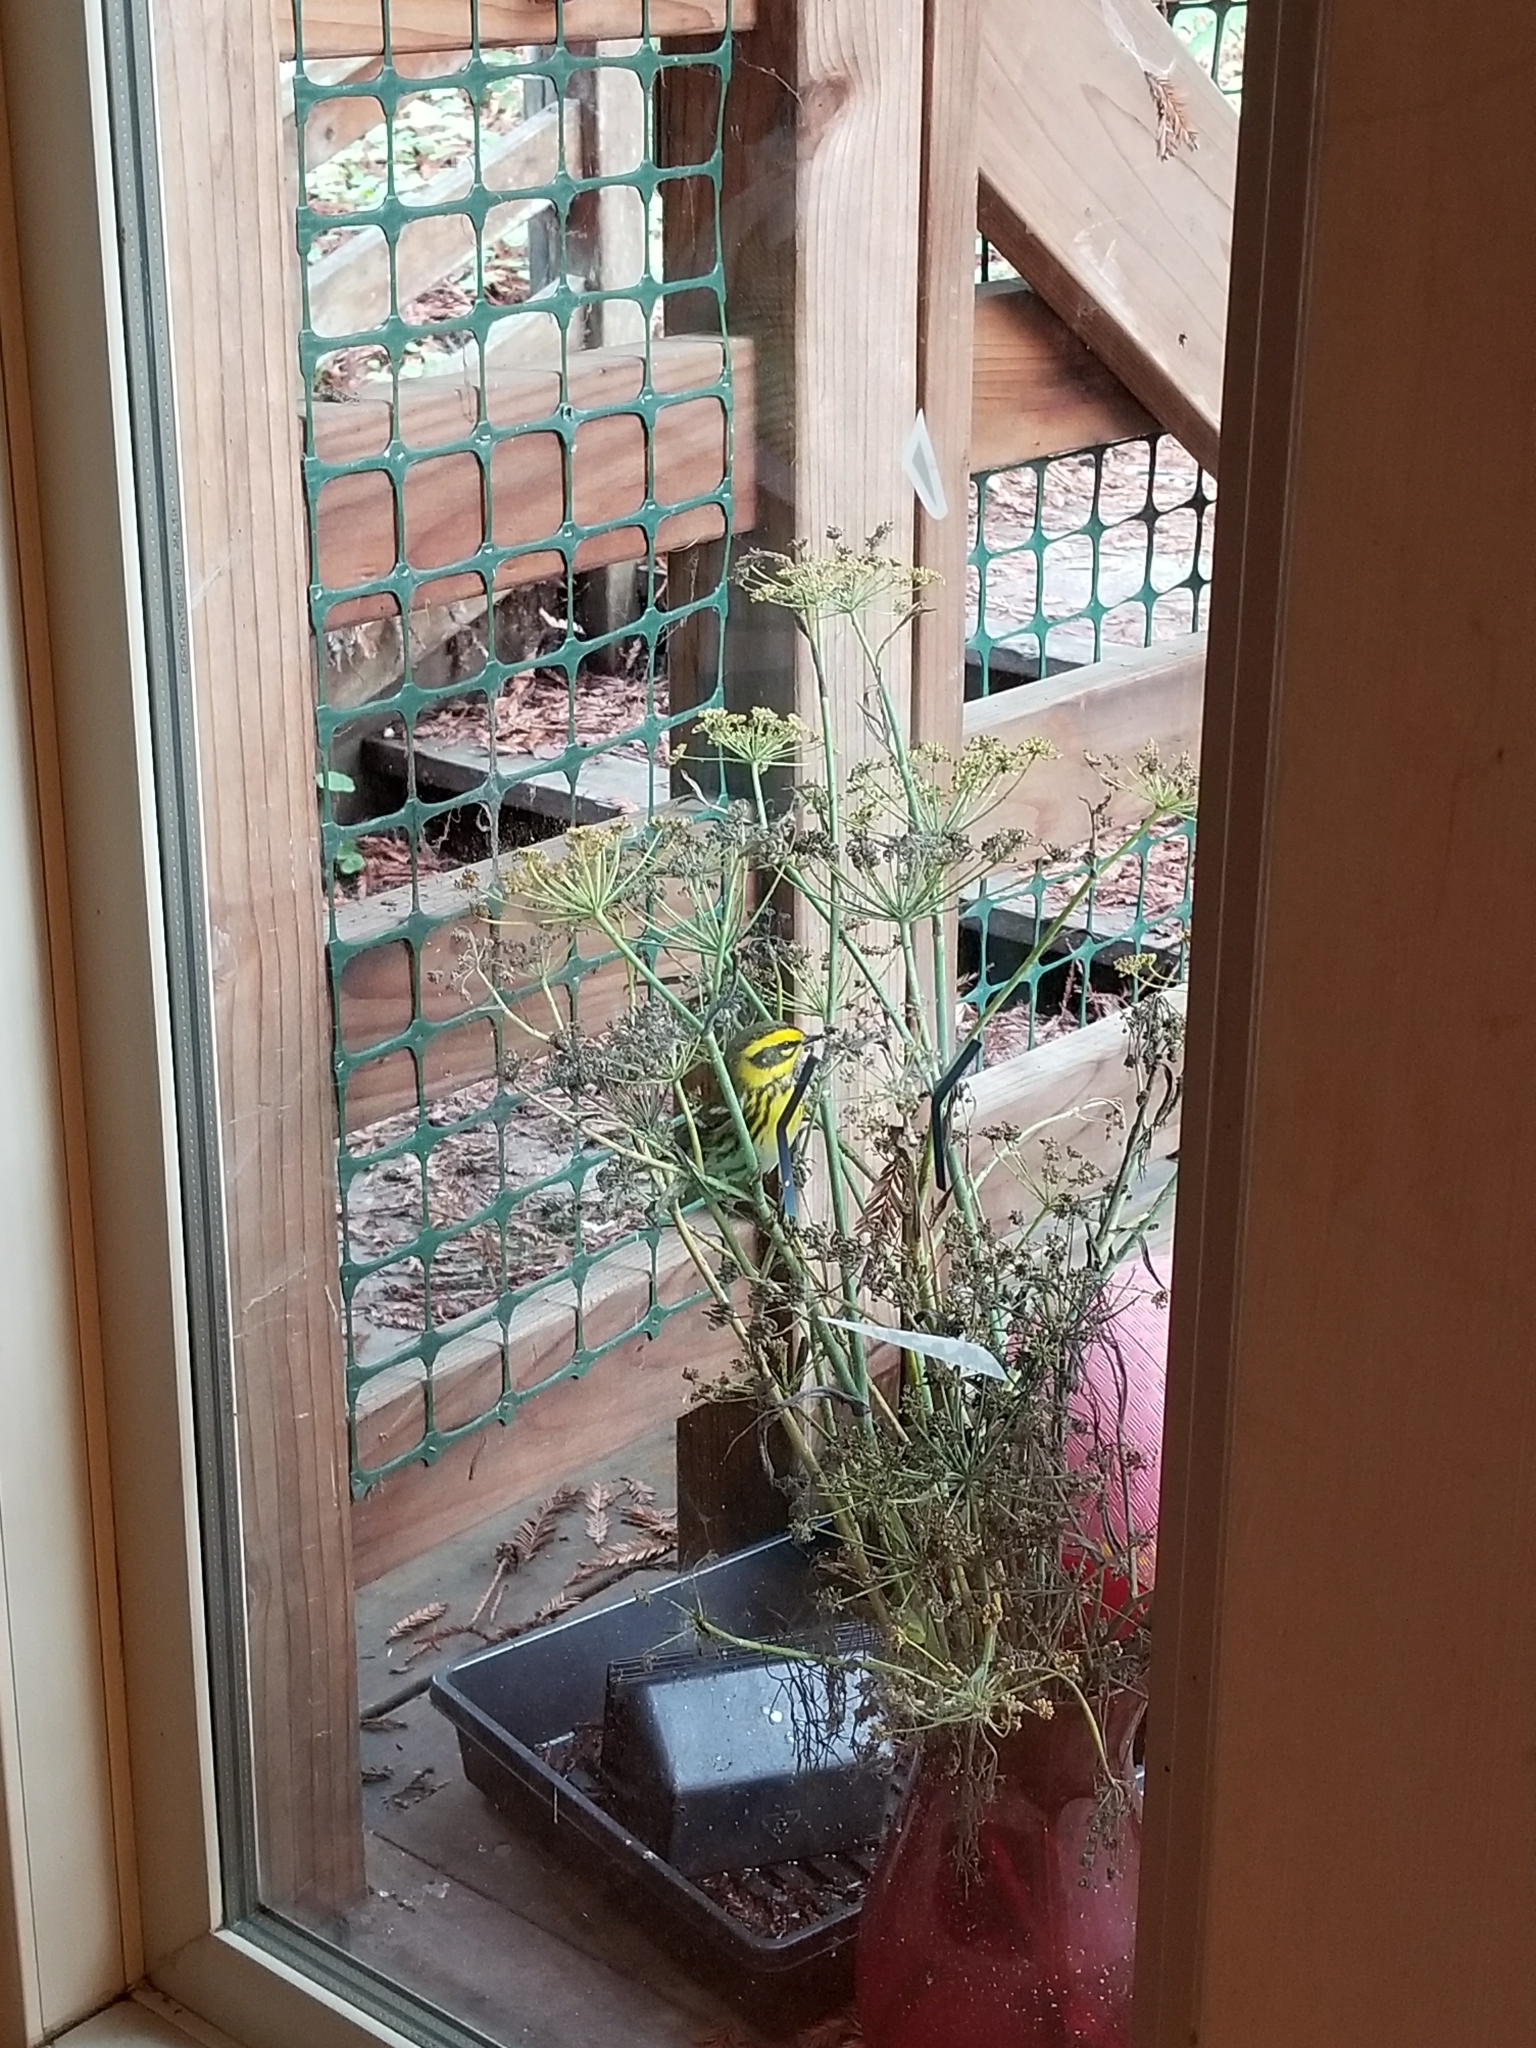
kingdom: Animalia
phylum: Chordata
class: Aves
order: Passeriformes
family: Parulidae
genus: Setophaga
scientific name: Setophaga townsendi
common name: Townsend's warbler
